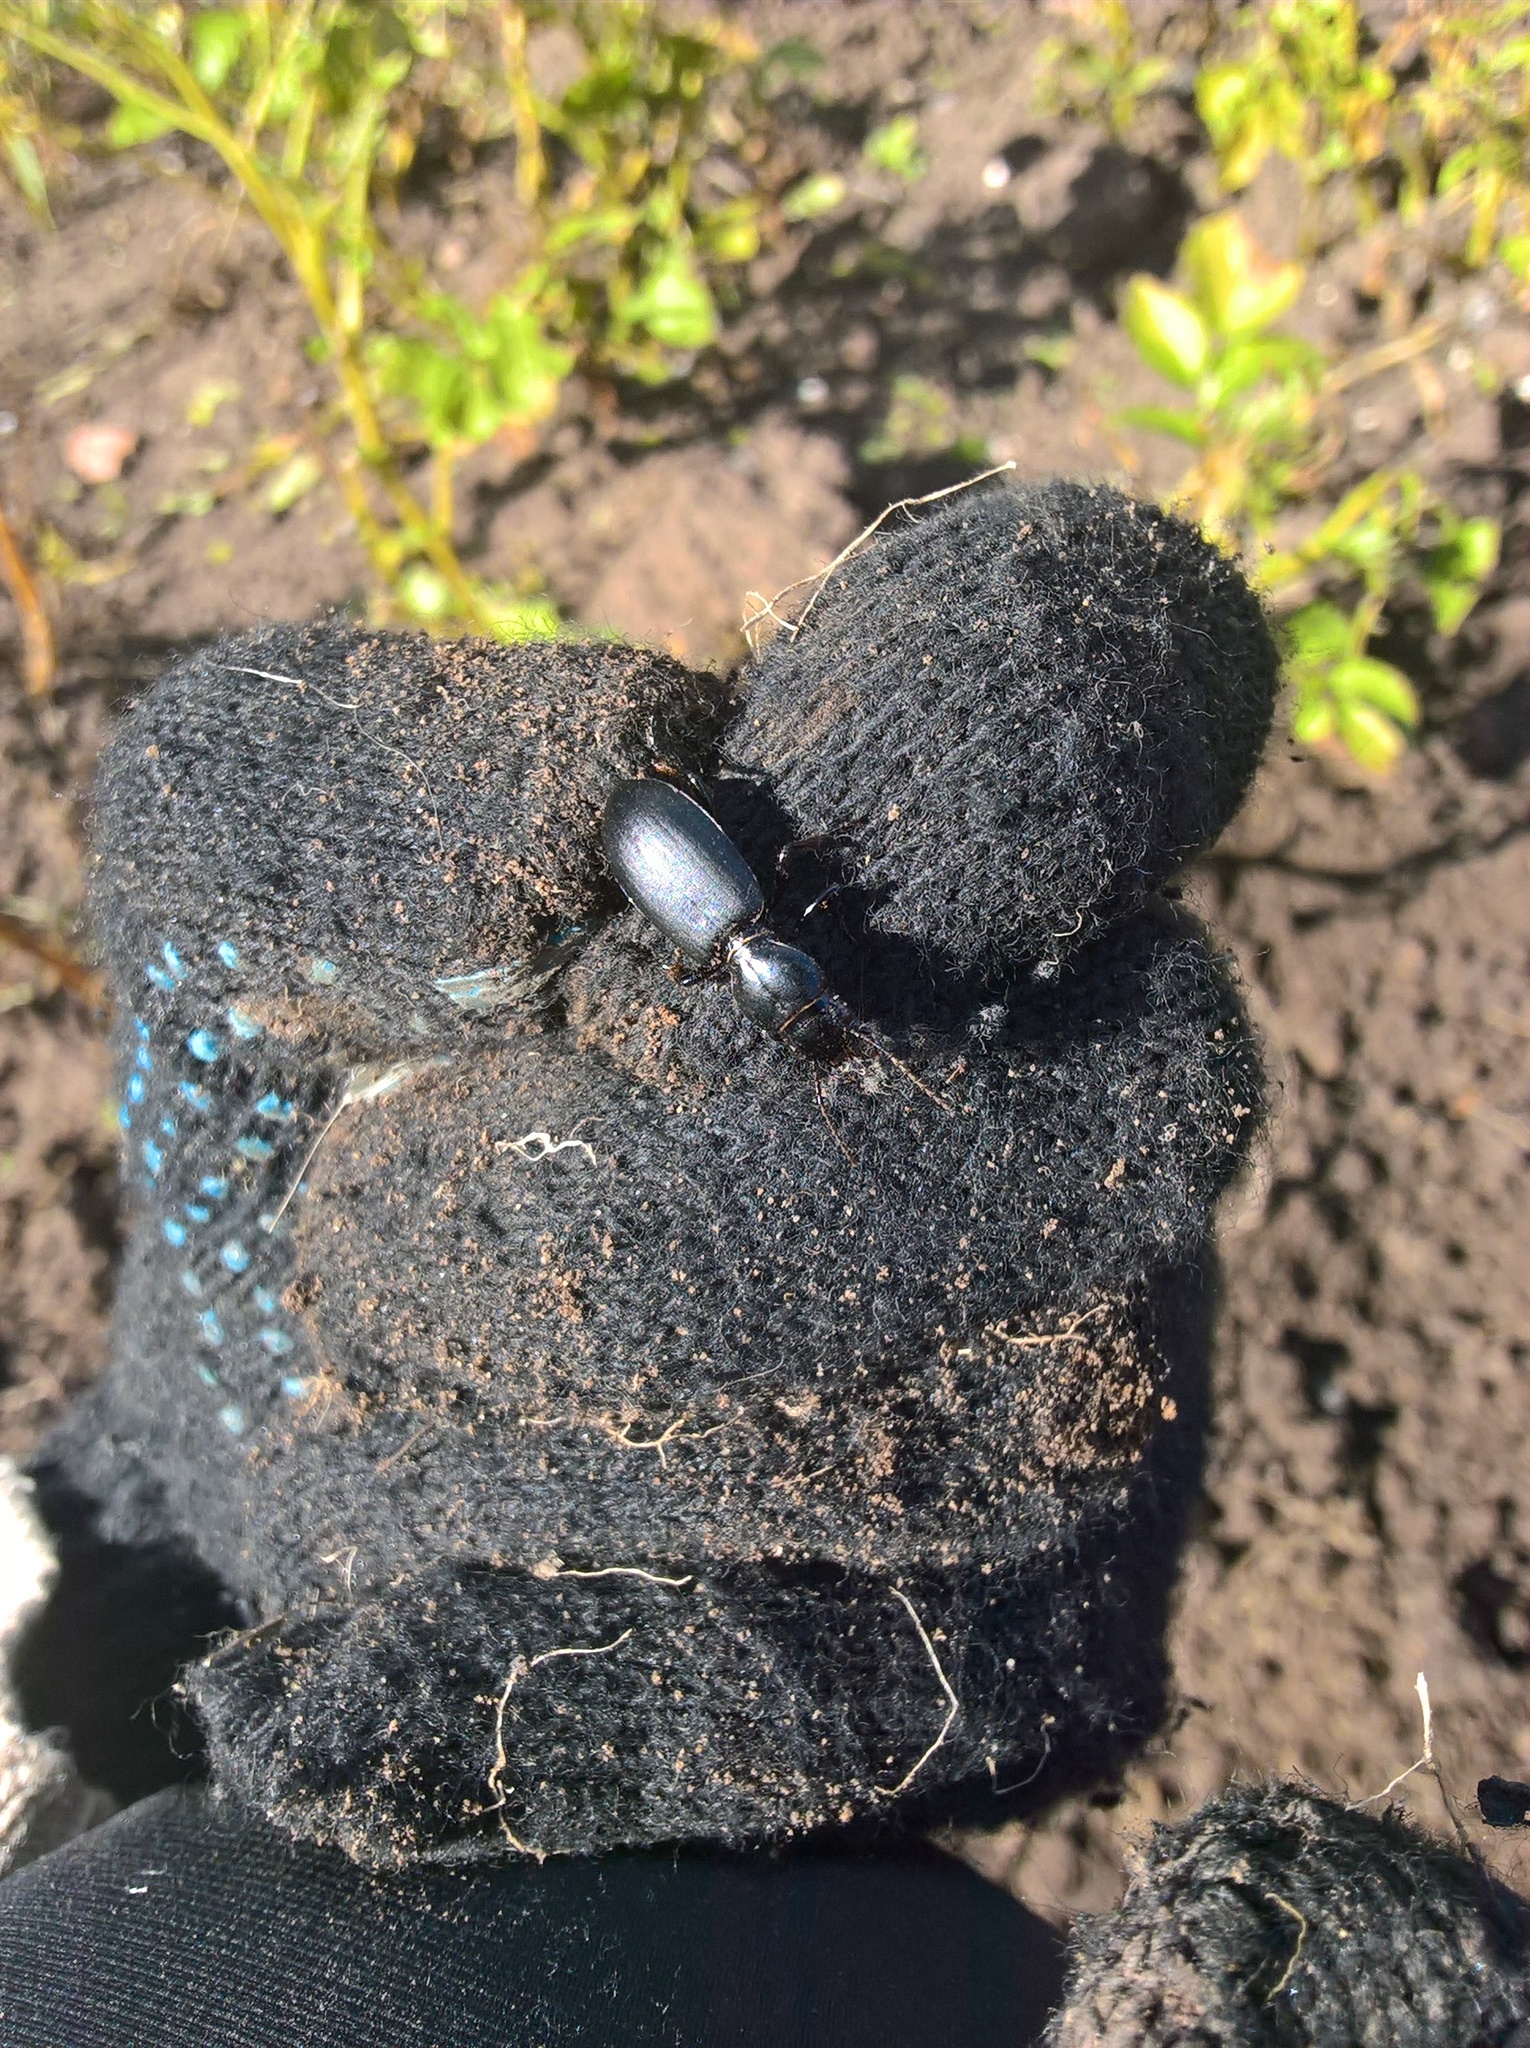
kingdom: Animalia
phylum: Arthropoda
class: Insecta
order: Coleoptera
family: Carabidae
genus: Broscus
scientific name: Broscus cephalotes
